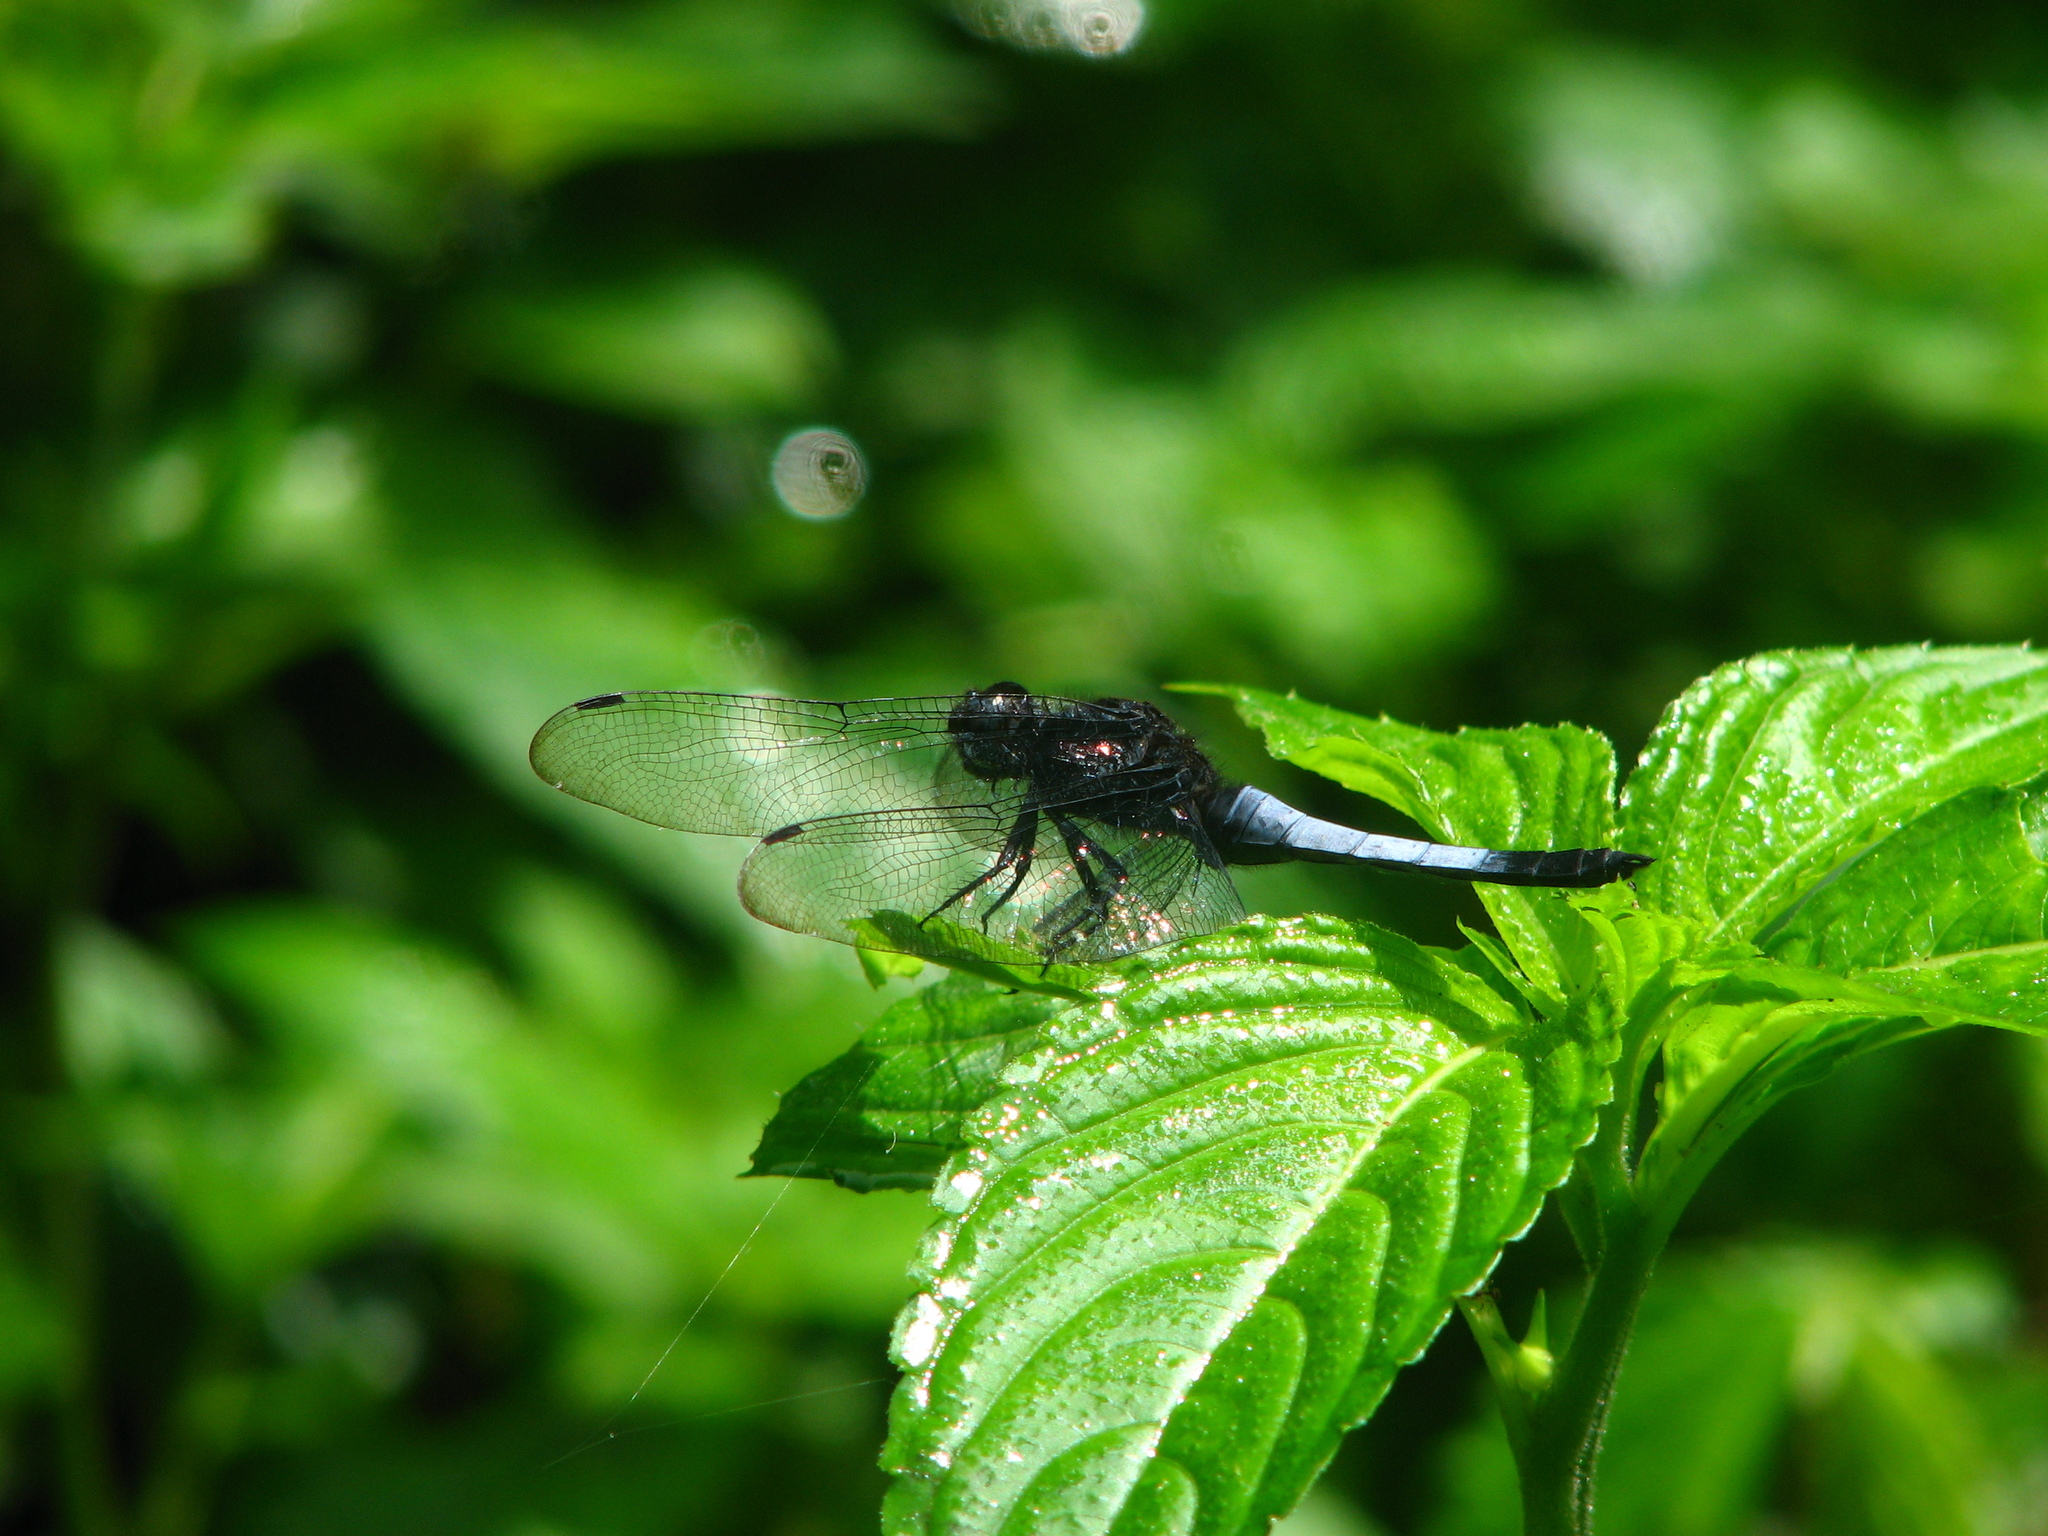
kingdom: Animalia
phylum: Arthropoda
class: Insecta
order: Odonata
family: Libellulidae
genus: Orthetrum
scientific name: Orthetrum triangulare
